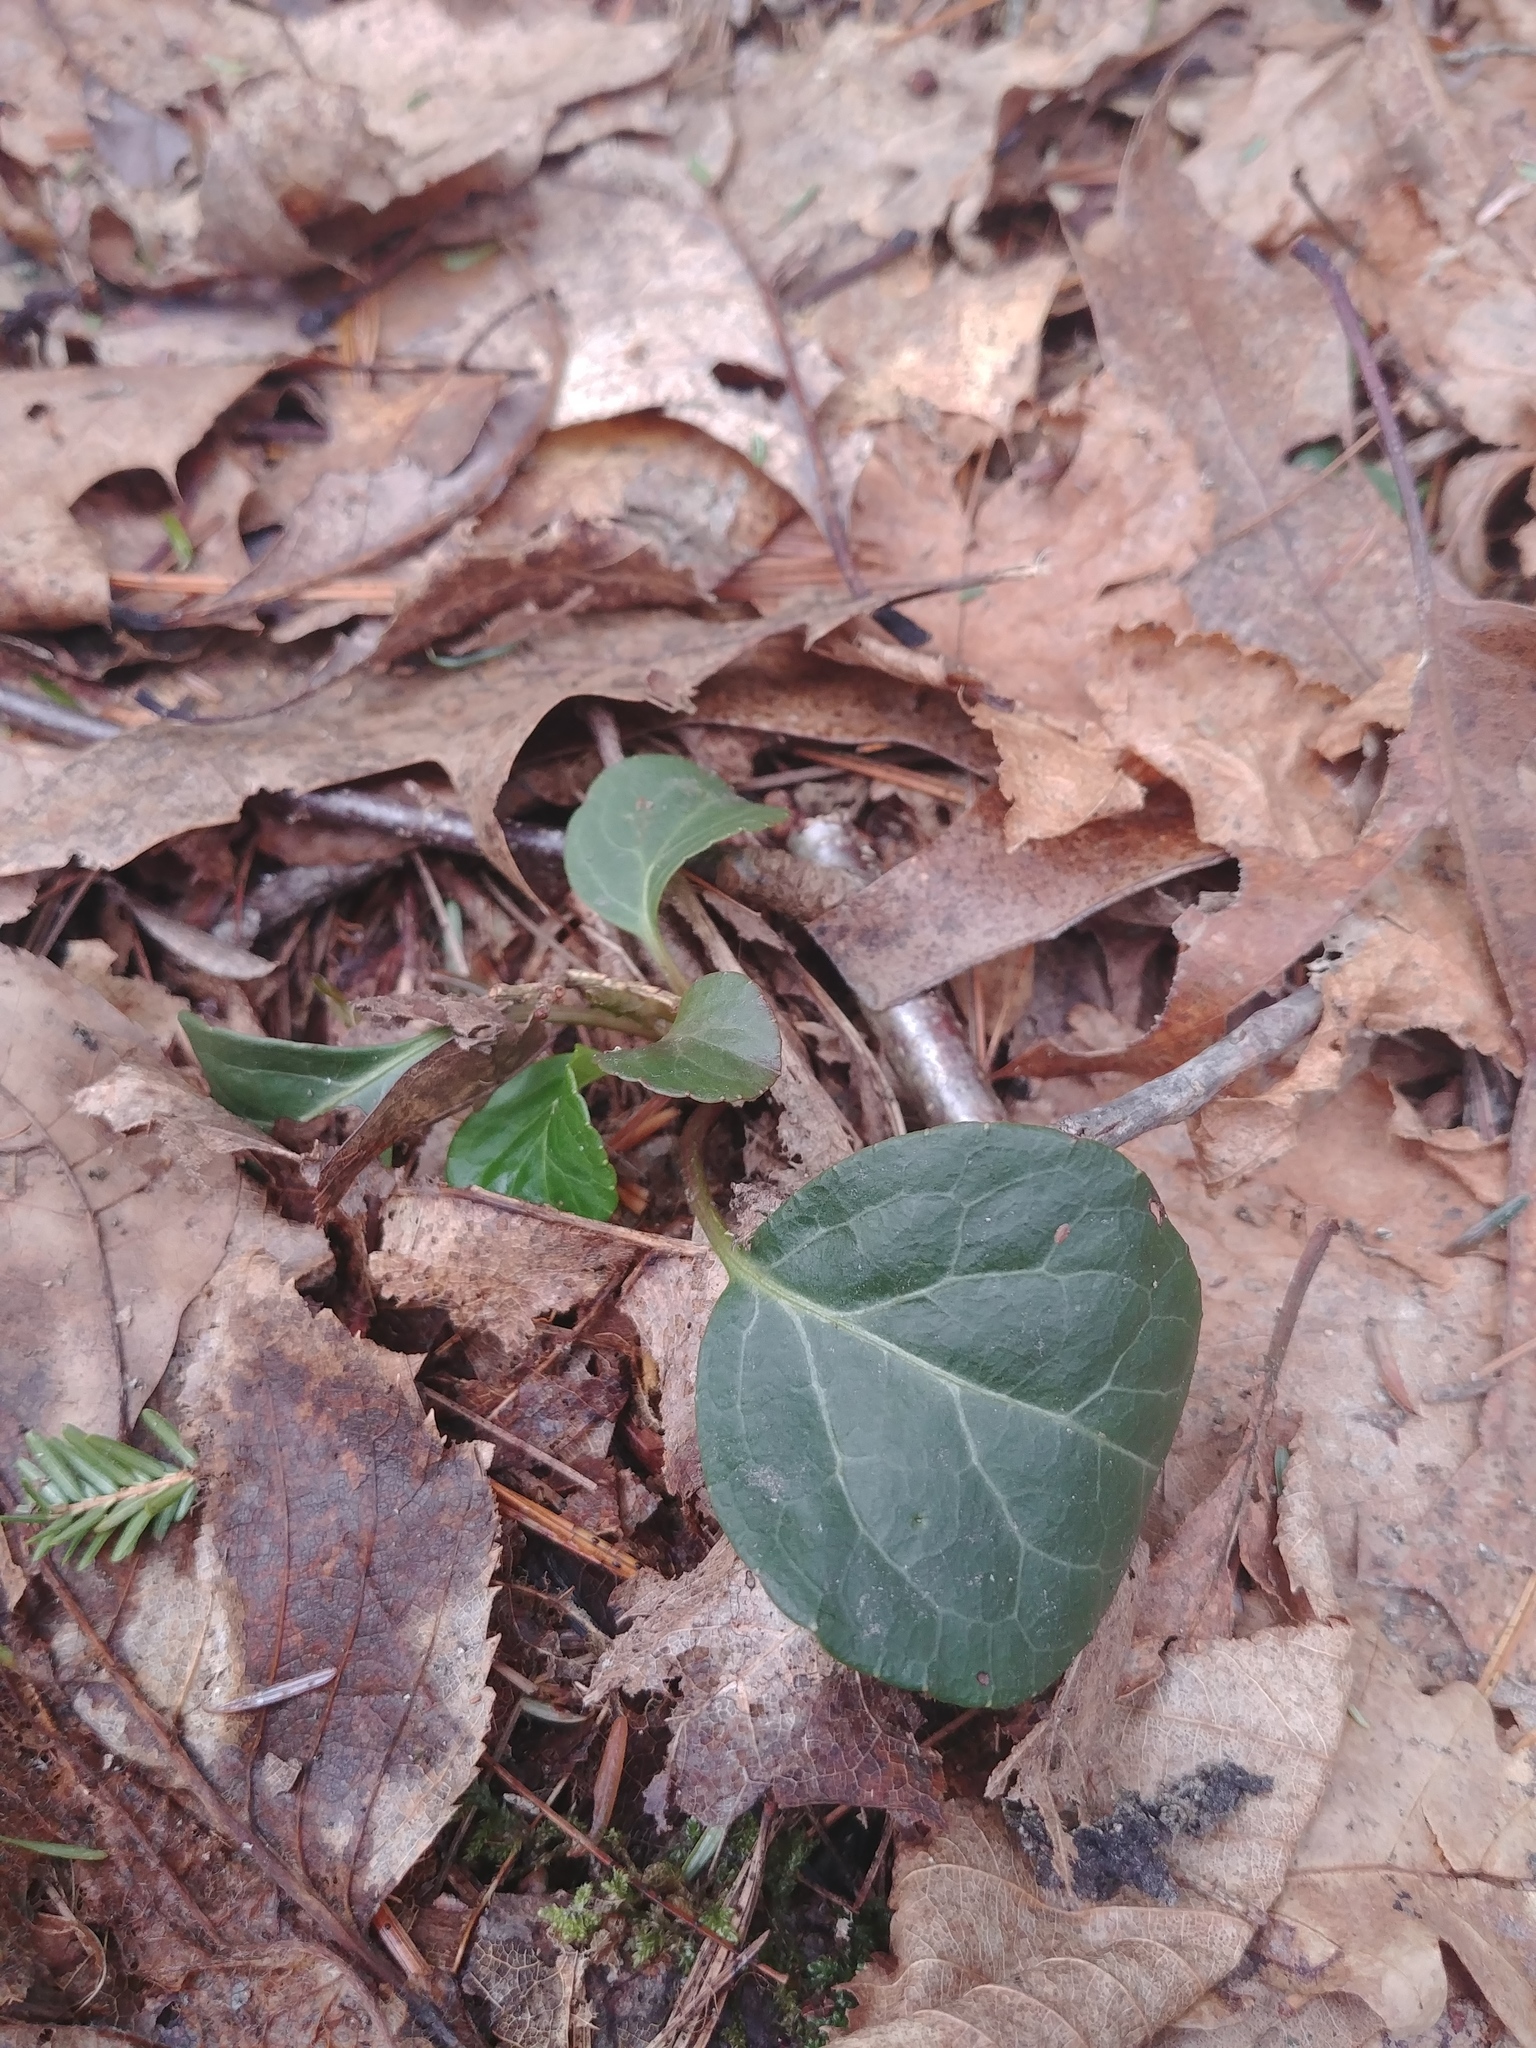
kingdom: Plantae
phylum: Tracheophyta
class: Magnoliopsida
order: Ericales
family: Ericaceae
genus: Pyrola
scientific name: Pyrola americana
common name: American wintergreen
